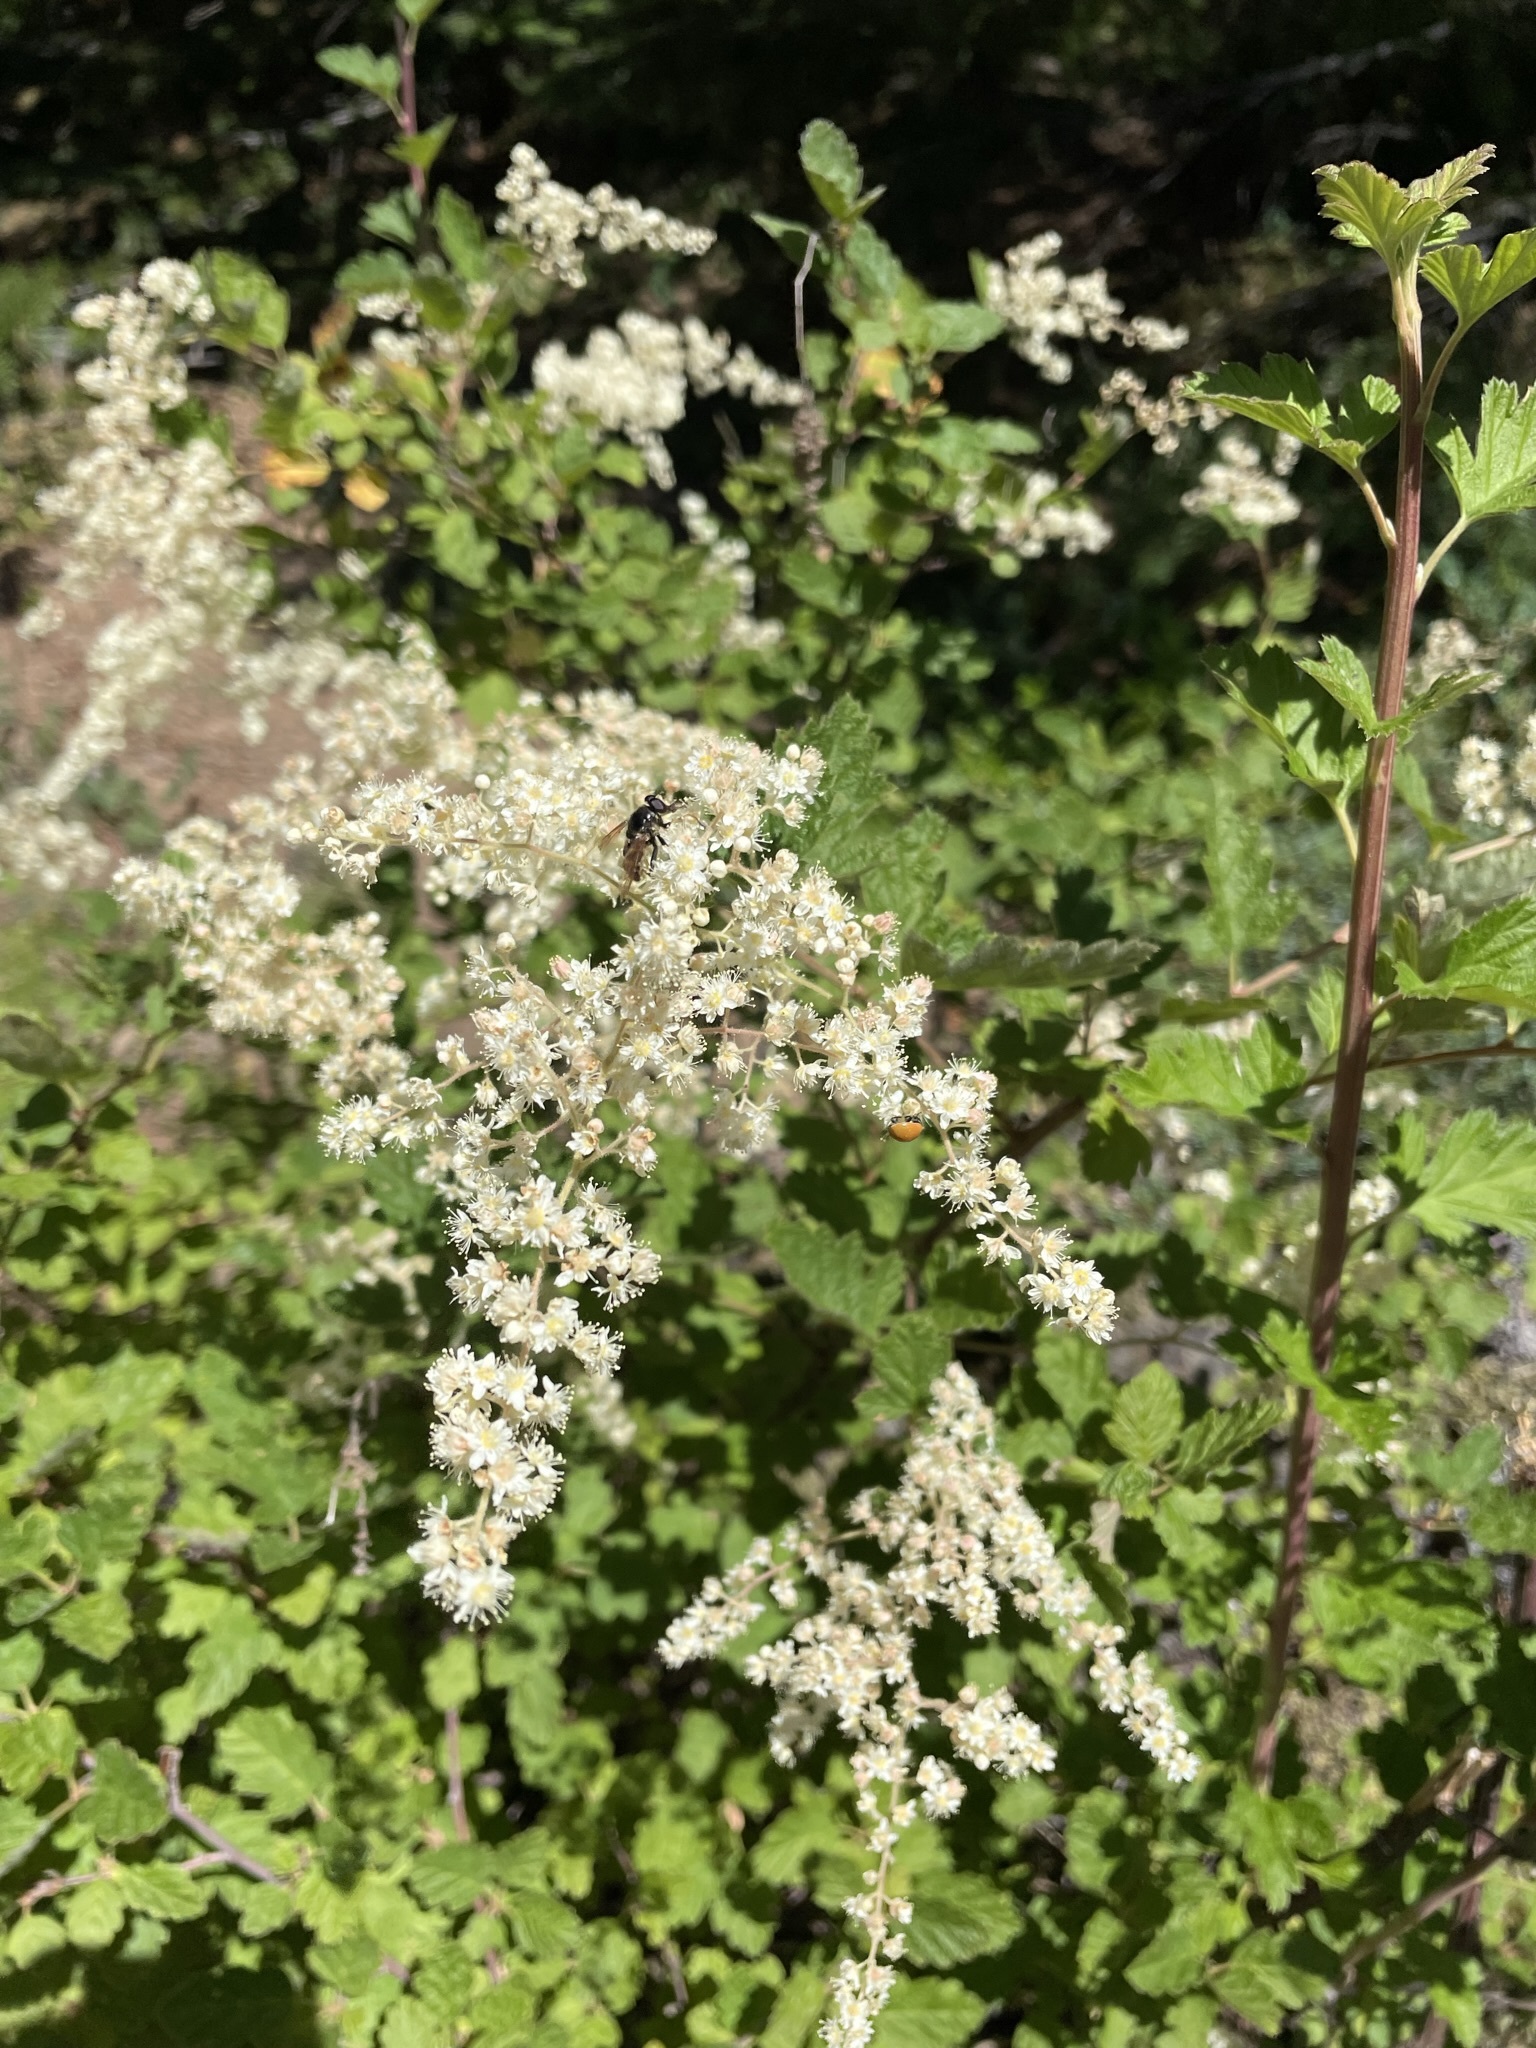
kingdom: Plantae
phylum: Tracheophyta
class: Magnoliopsida
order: Rosales
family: Rosaceae
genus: Holodiscus
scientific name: Holodiscus discolor
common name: Oceanspray
